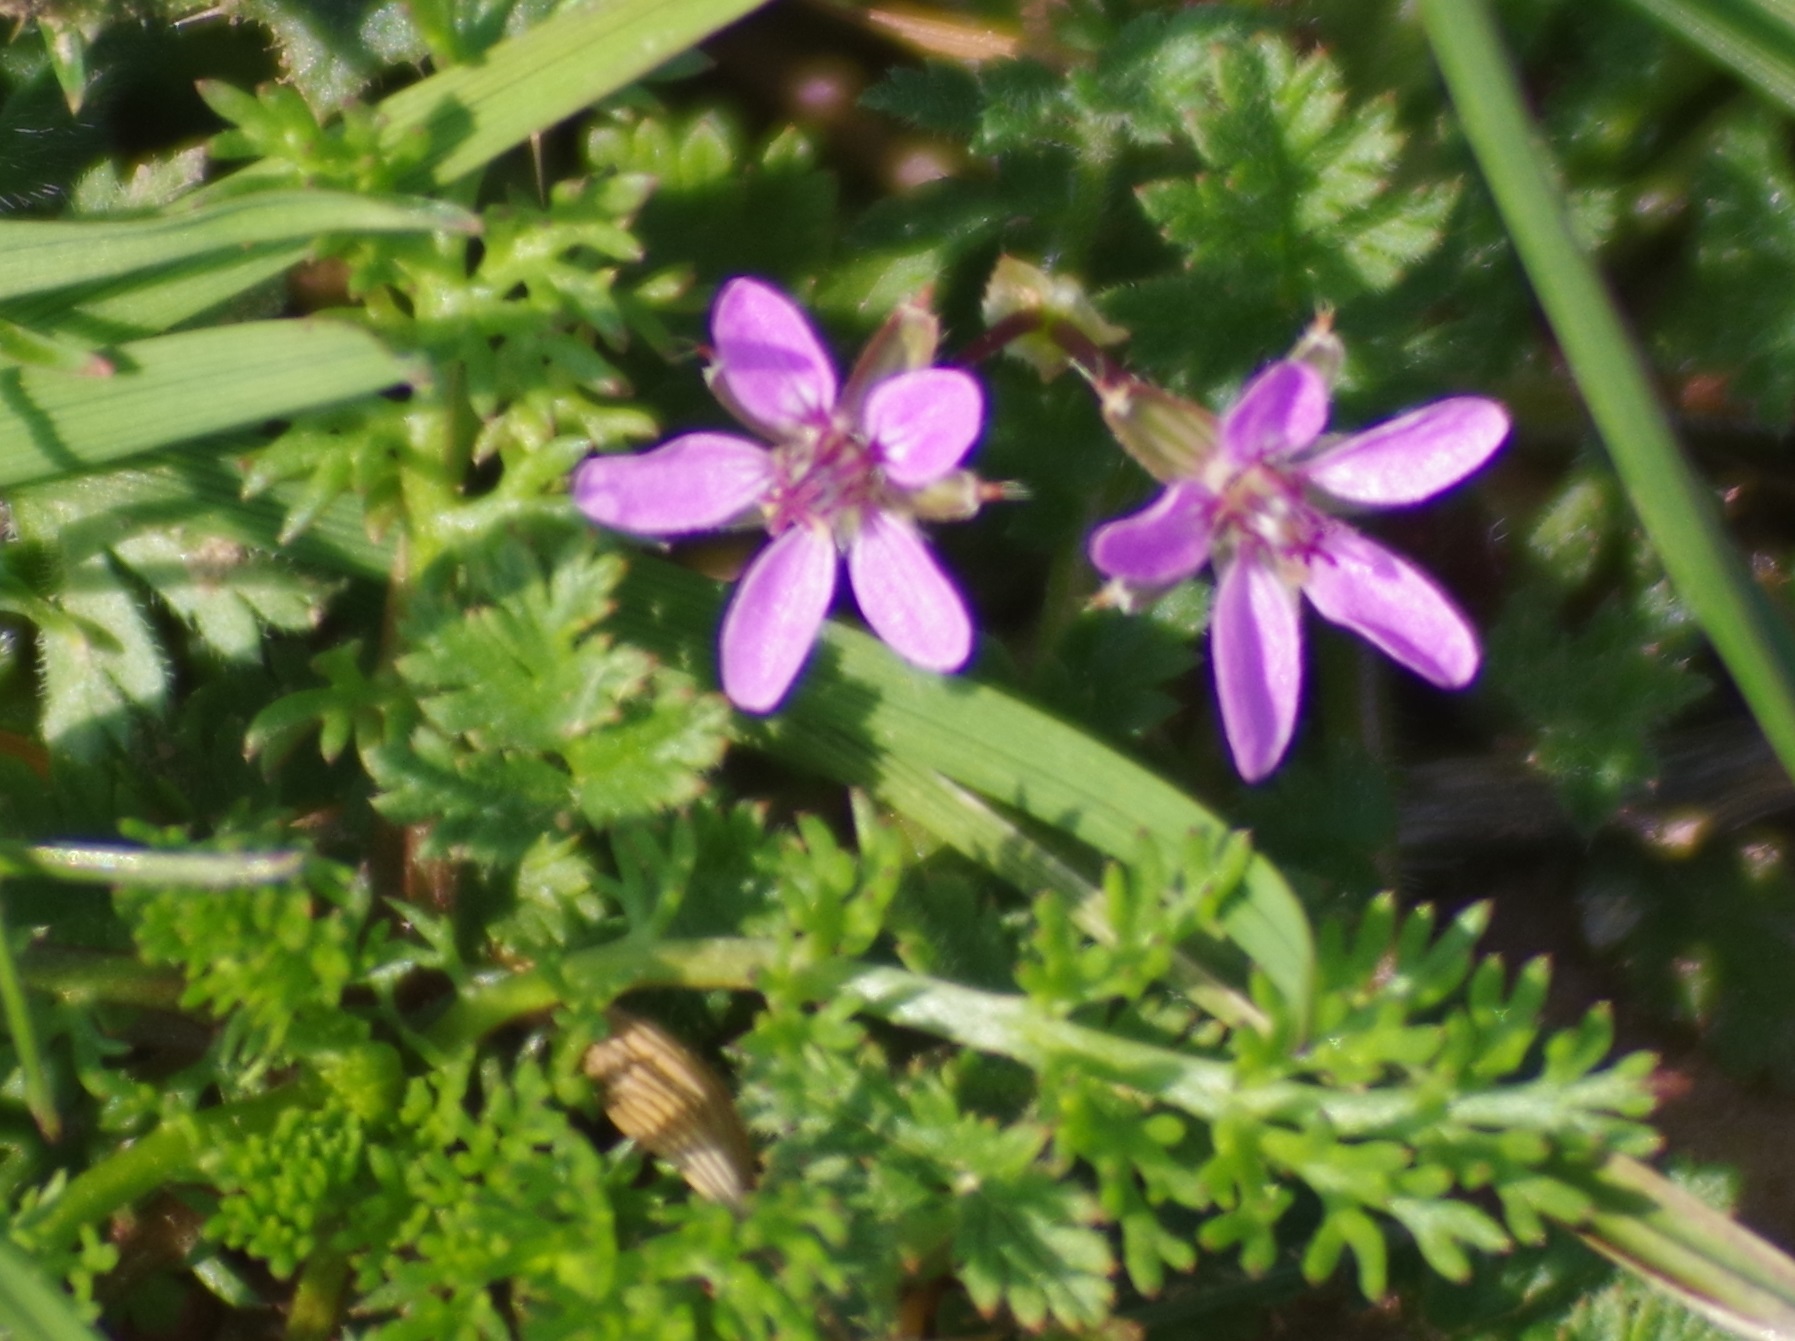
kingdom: Plantae
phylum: Tracheophyta
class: Magnoliopsida
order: Geraniales
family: Geraniaceae
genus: Erodium
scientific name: Erodium cicutarium
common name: Common stork's-bill
